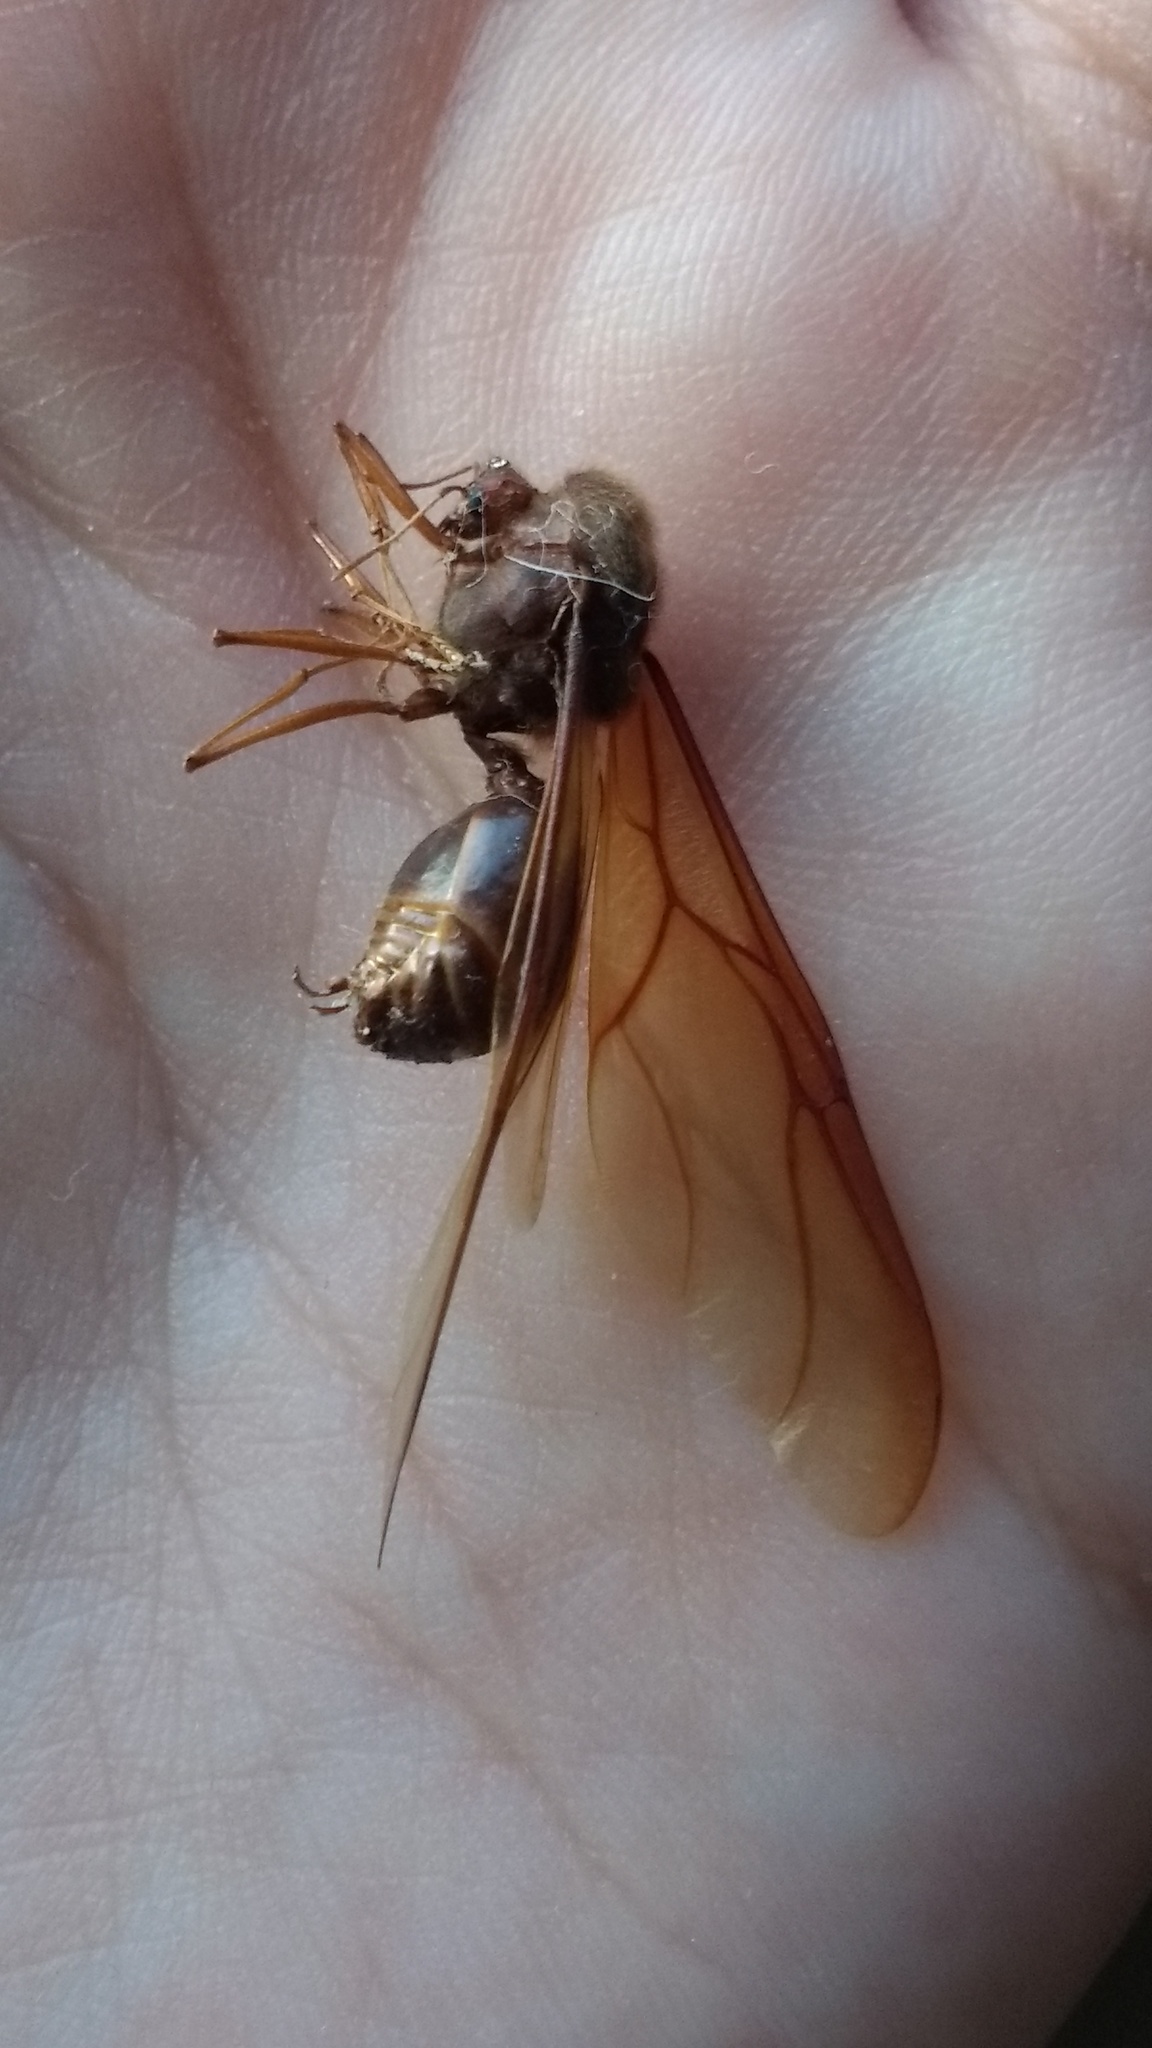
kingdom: Animalia
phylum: Arthropoda
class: Insecta
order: Hymenoptera
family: Formicidae
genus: Atta
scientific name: Atta mexicana
